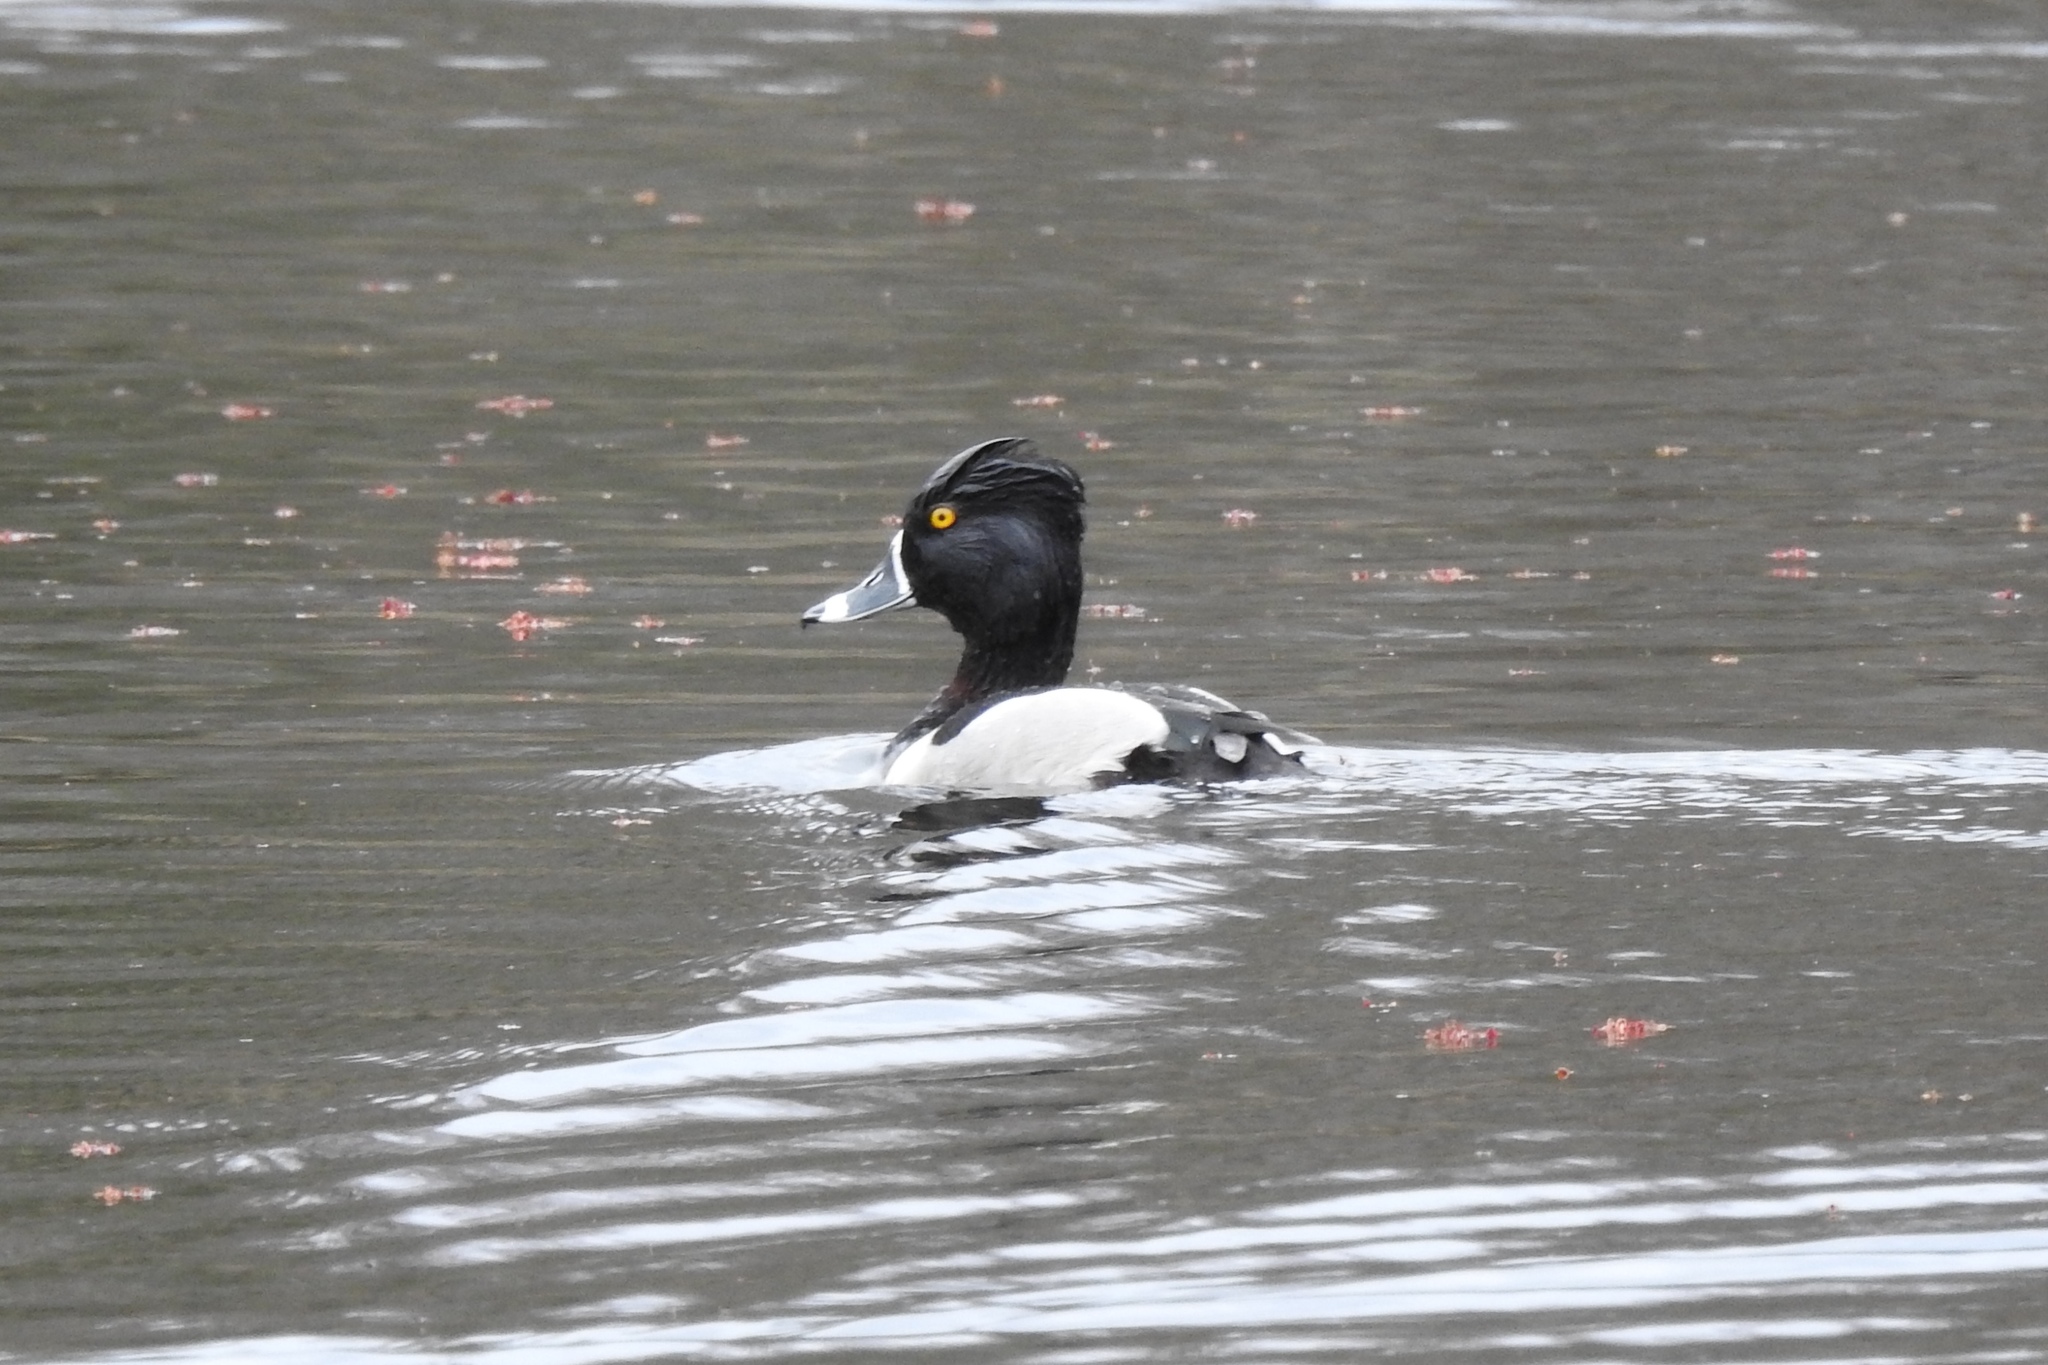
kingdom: Animalia
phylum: Chordata
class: Aves
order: Anseriformes
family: Anatidae
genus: Aythya
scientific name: Aythya collaris
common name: Ring-necked duck
